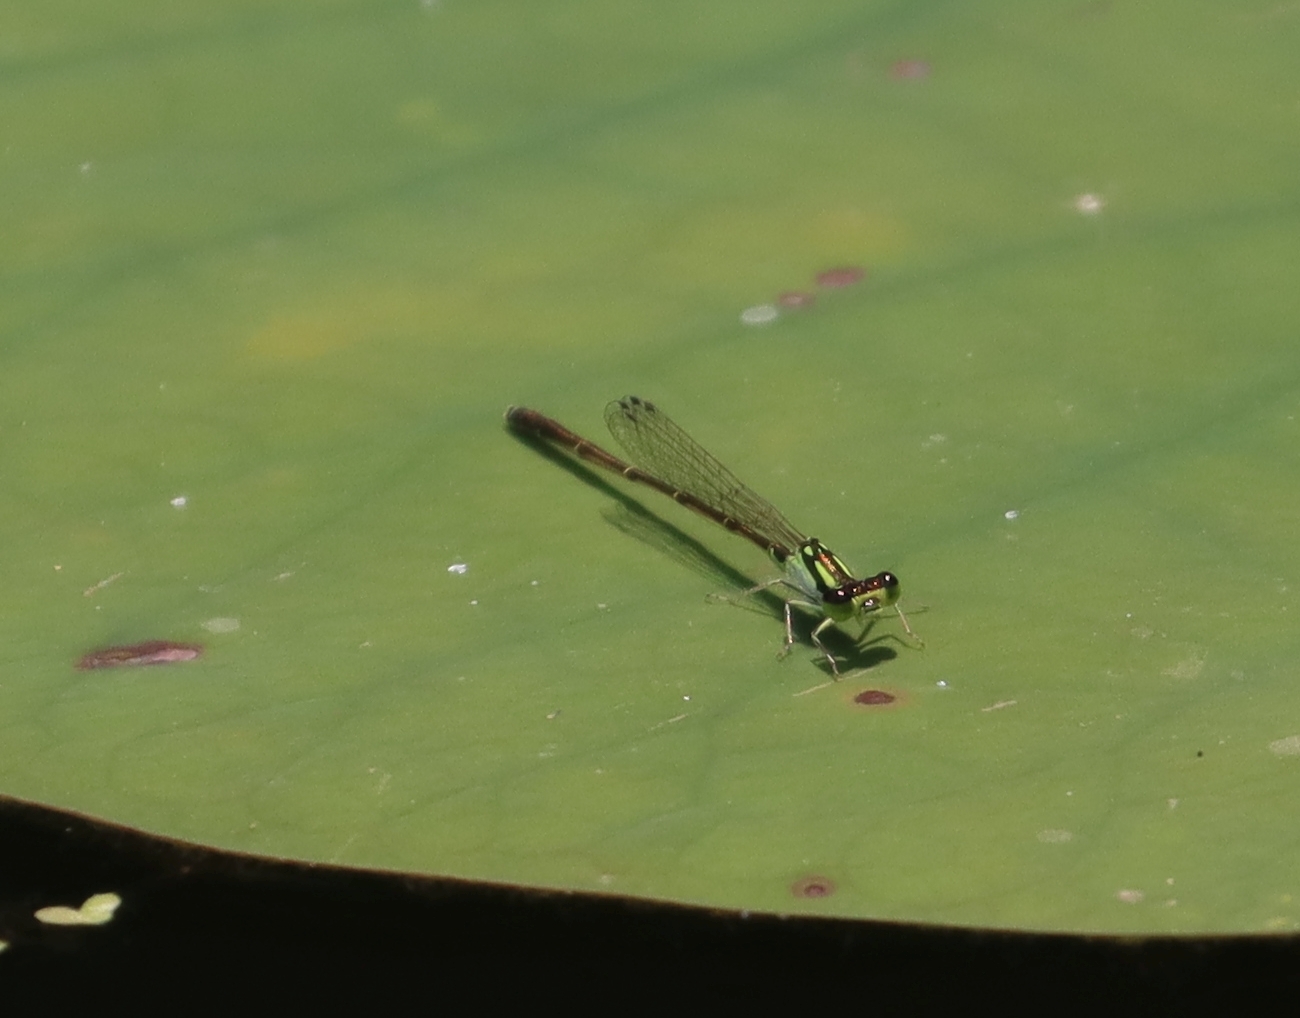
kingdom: Animalia
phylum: Arthropoda
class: Insecta
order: Odonata
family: Coenagrionidae
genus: Ischnura
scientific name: Ischnura posita
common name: Fragile forktail
